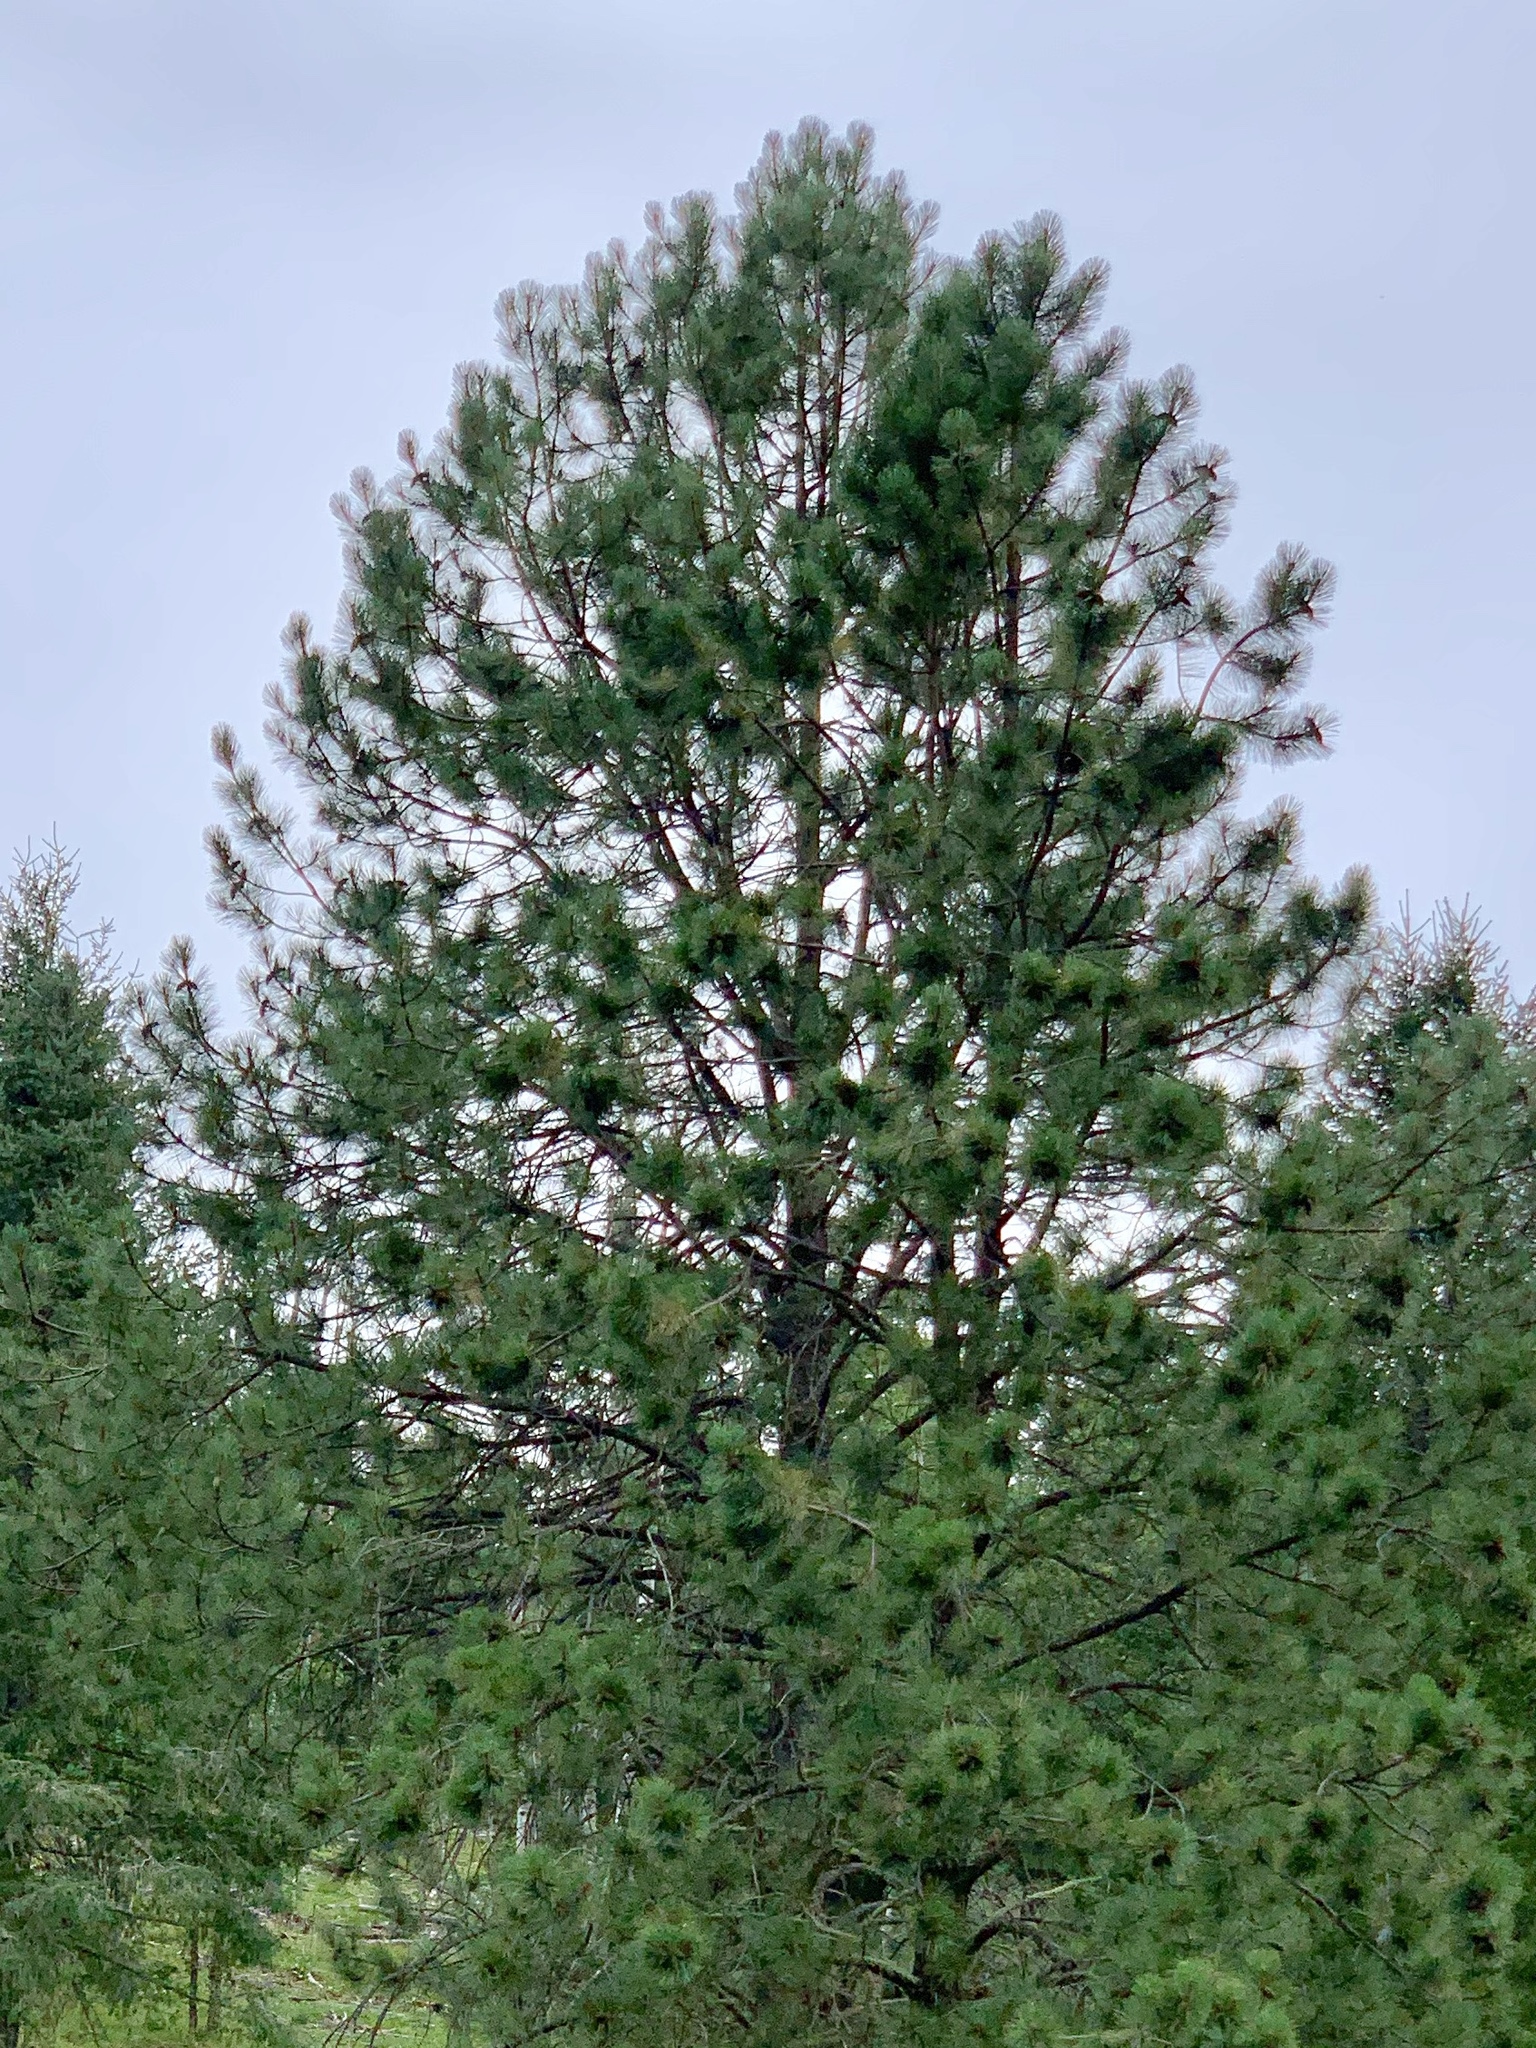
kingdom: Plantae
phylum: Tracheophyta
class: Pinopsida
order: Pinales
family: Pinaceae
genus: Pinus
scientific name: Pinus ponderosa
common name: Western yellow-pine
